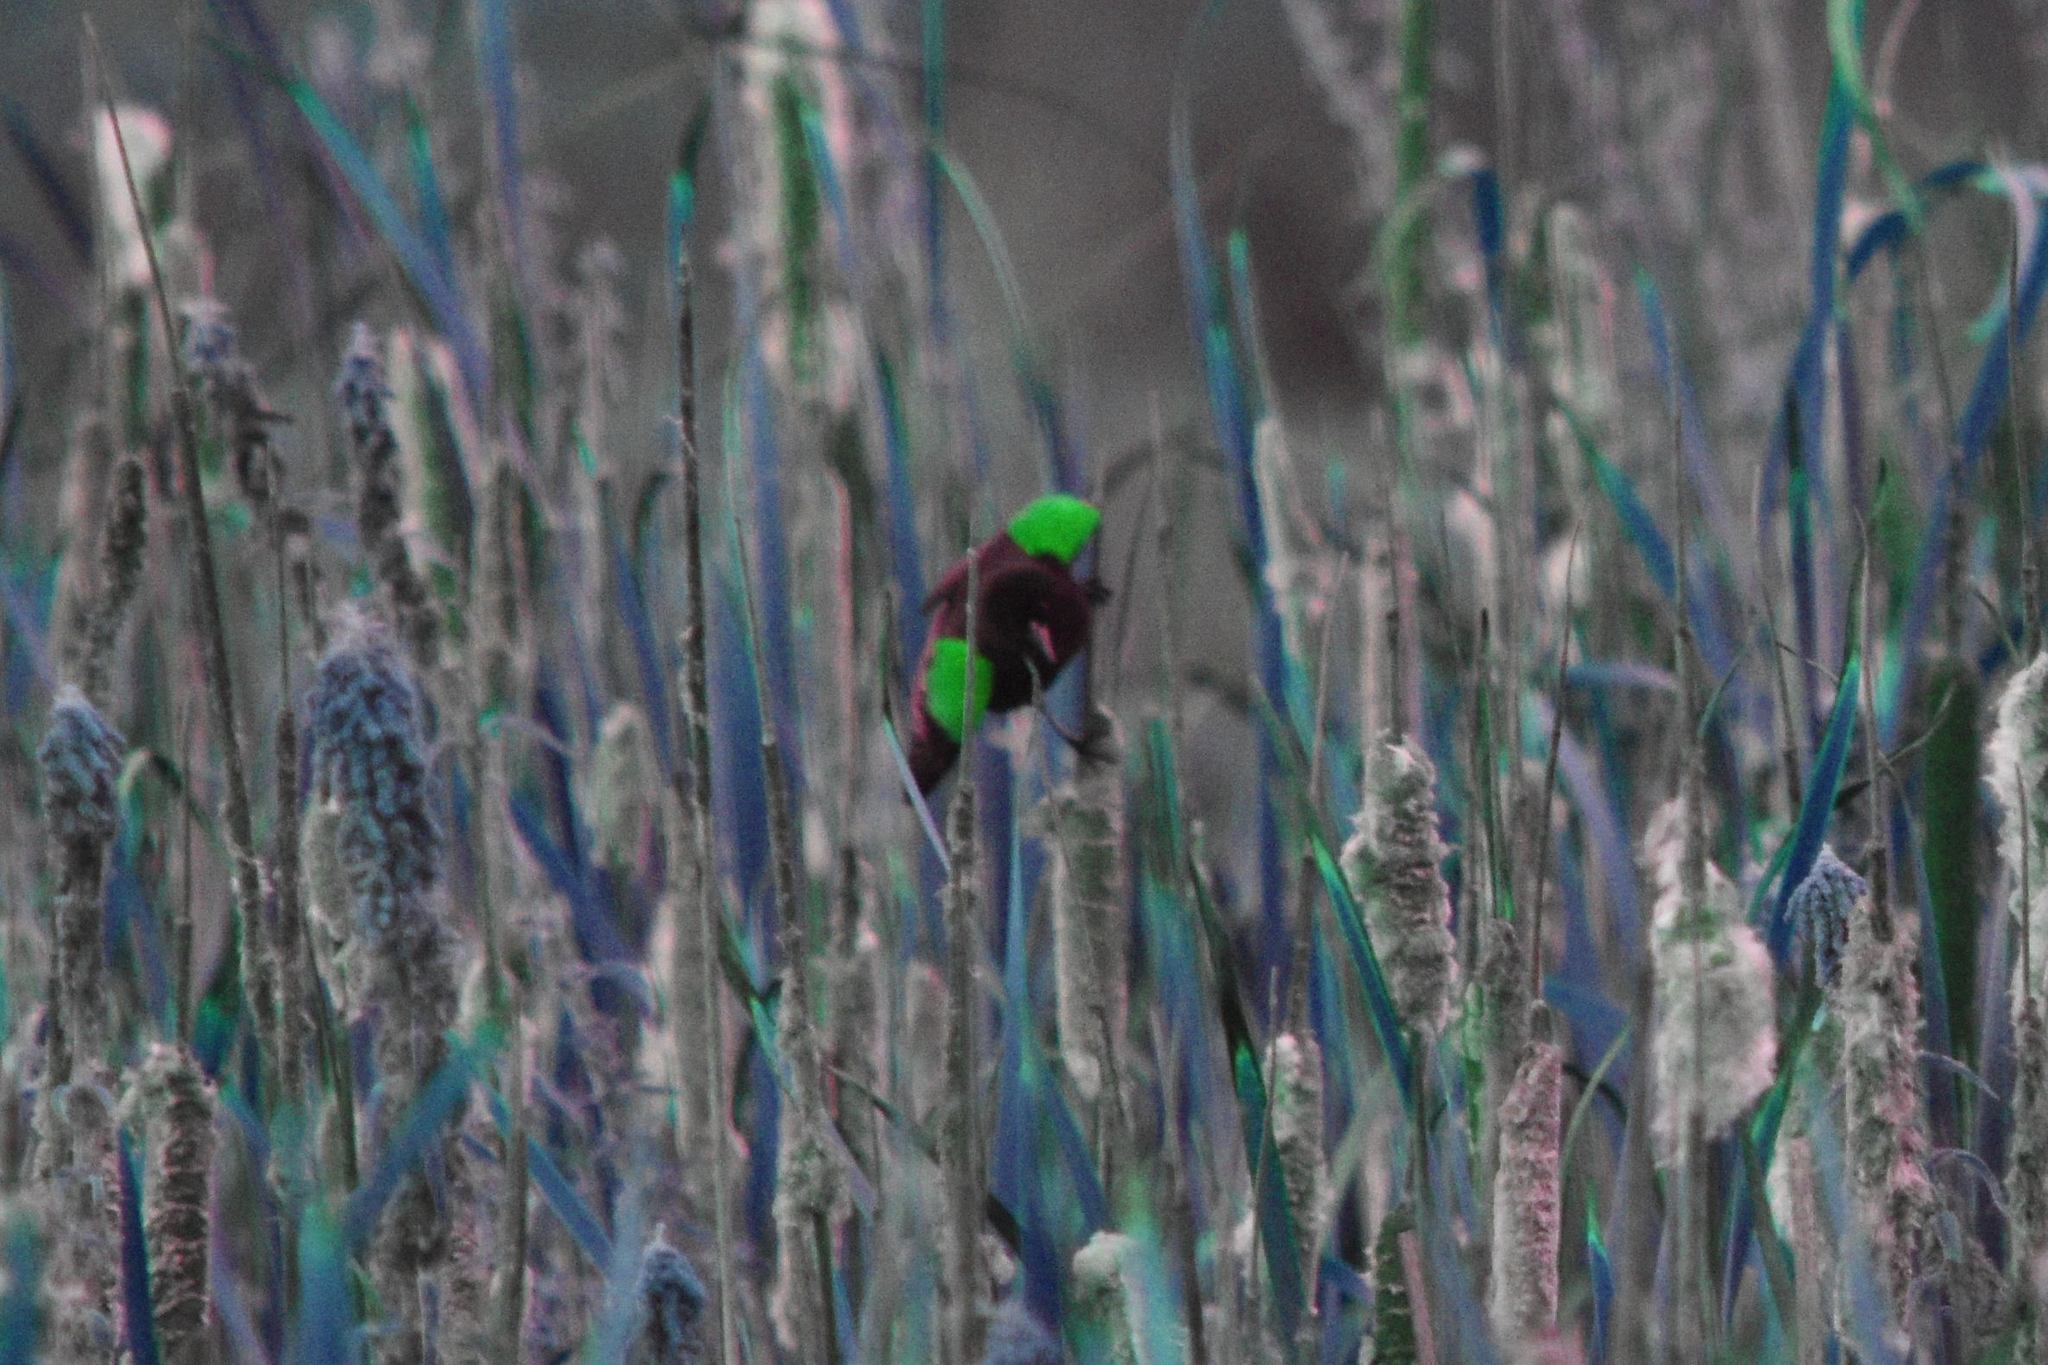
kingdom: Animalia
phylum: Chordata
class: Aves
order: Passeriformes
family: Icteridae
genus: Agelaius
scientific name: Agelaius phoeniceus
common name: Red-winged blackbird
